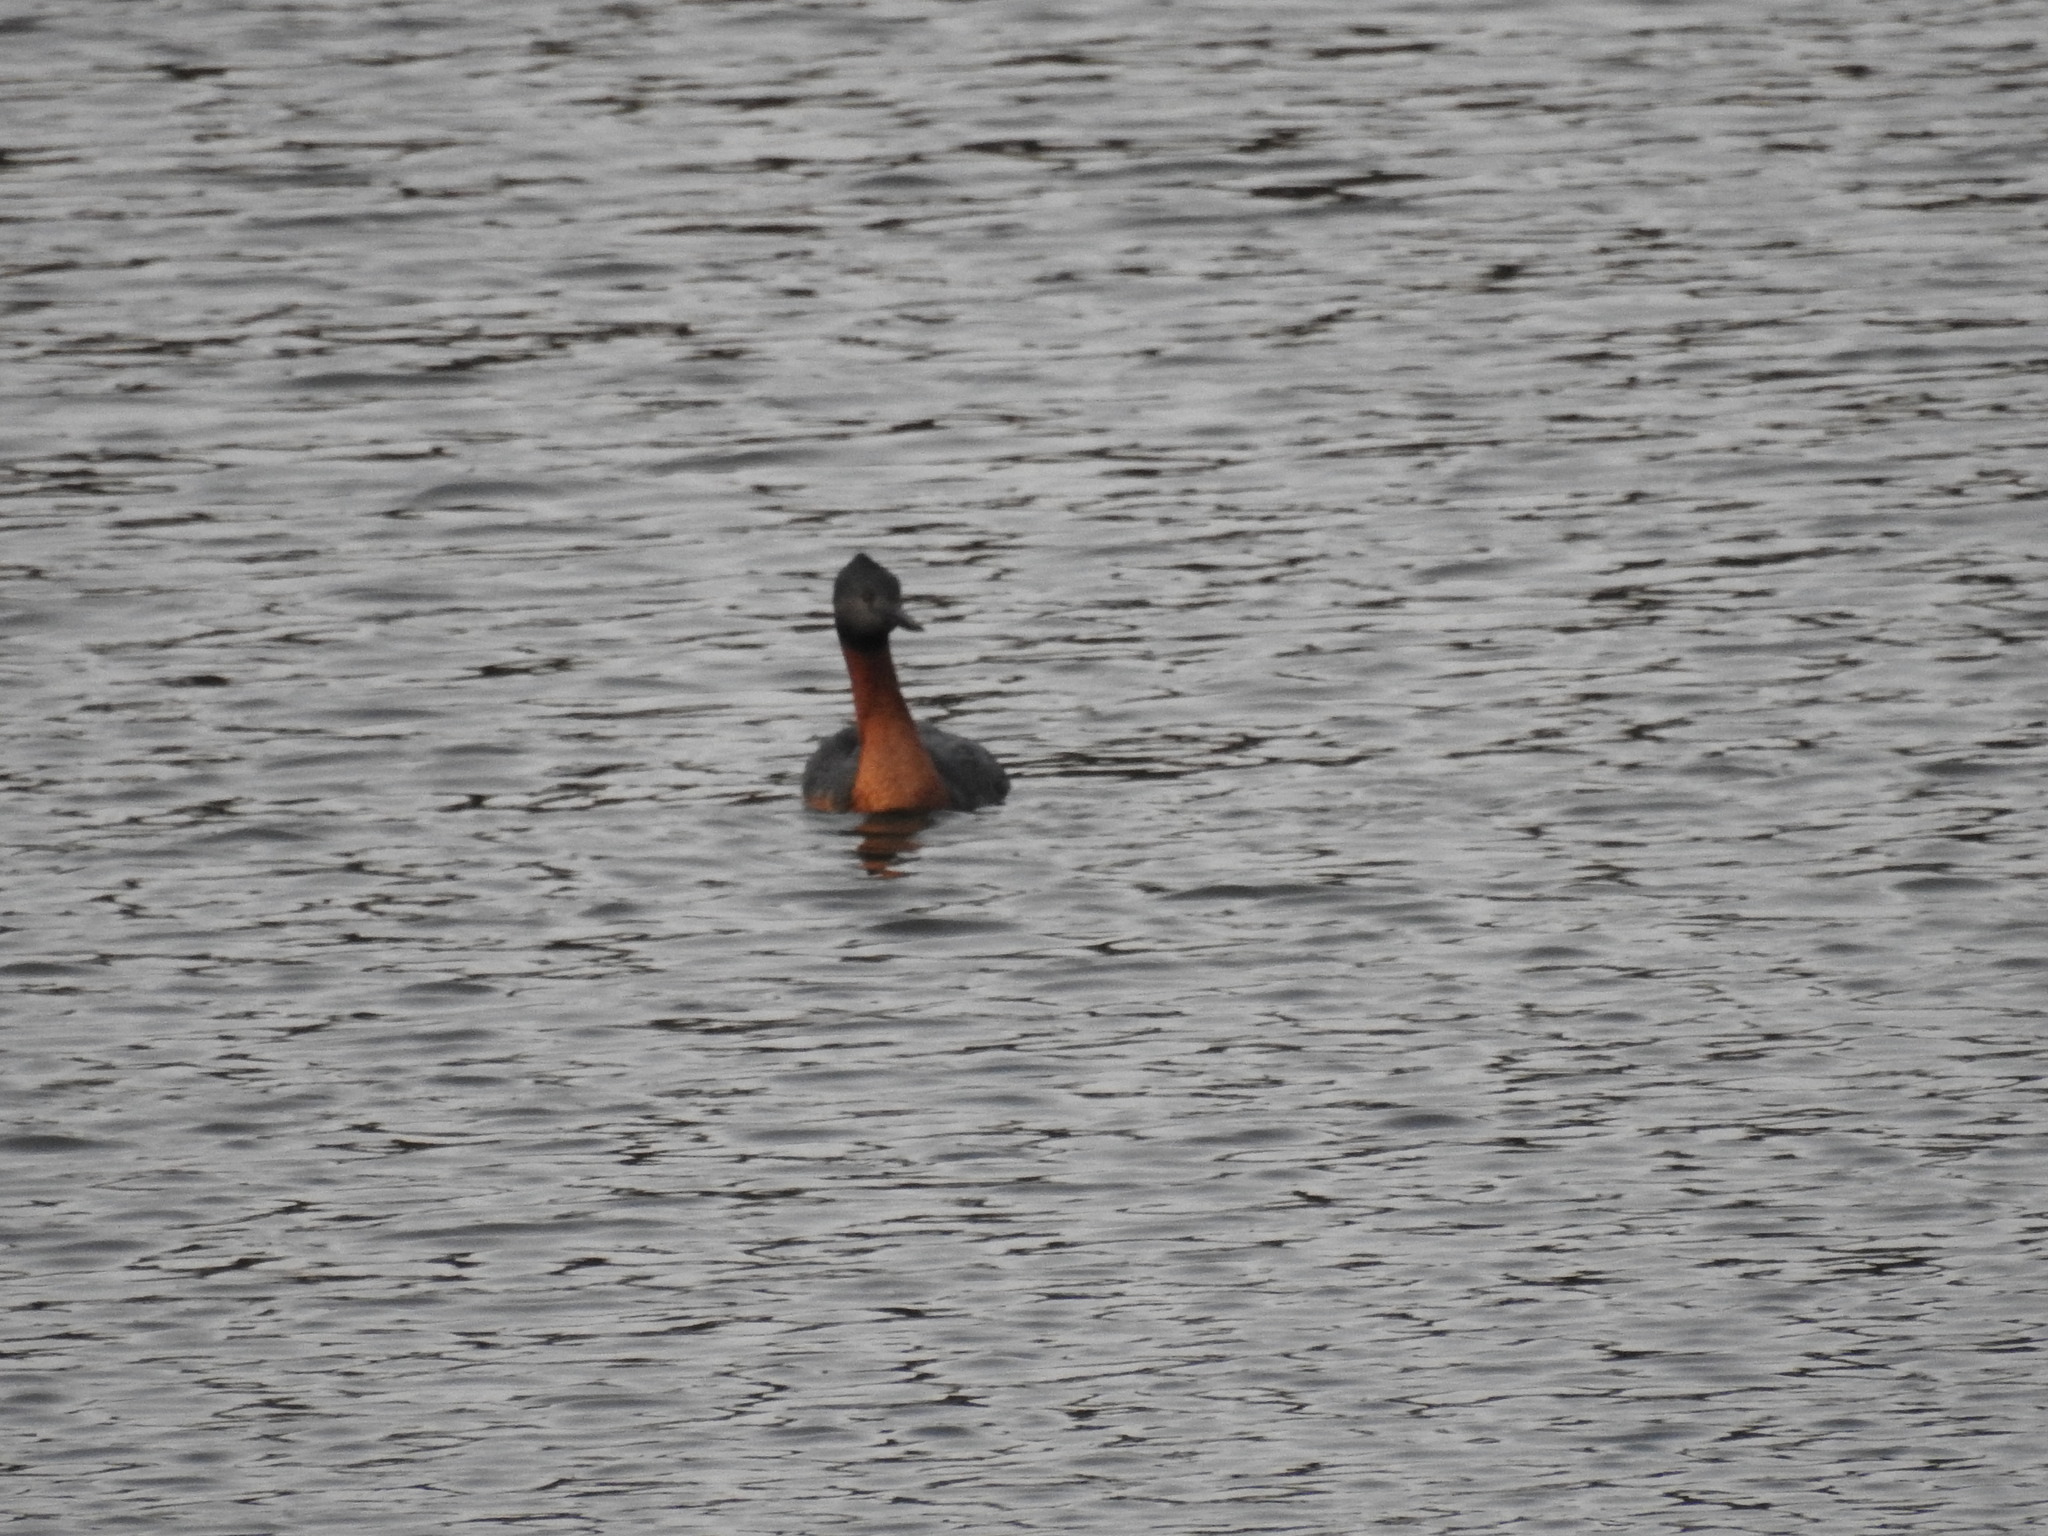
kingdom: Animalia
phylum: Chordata
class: Aves
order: Podicipediformes
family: Podicipedidae
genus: Podiceps
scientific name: Podiceps major
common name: Great grebe
